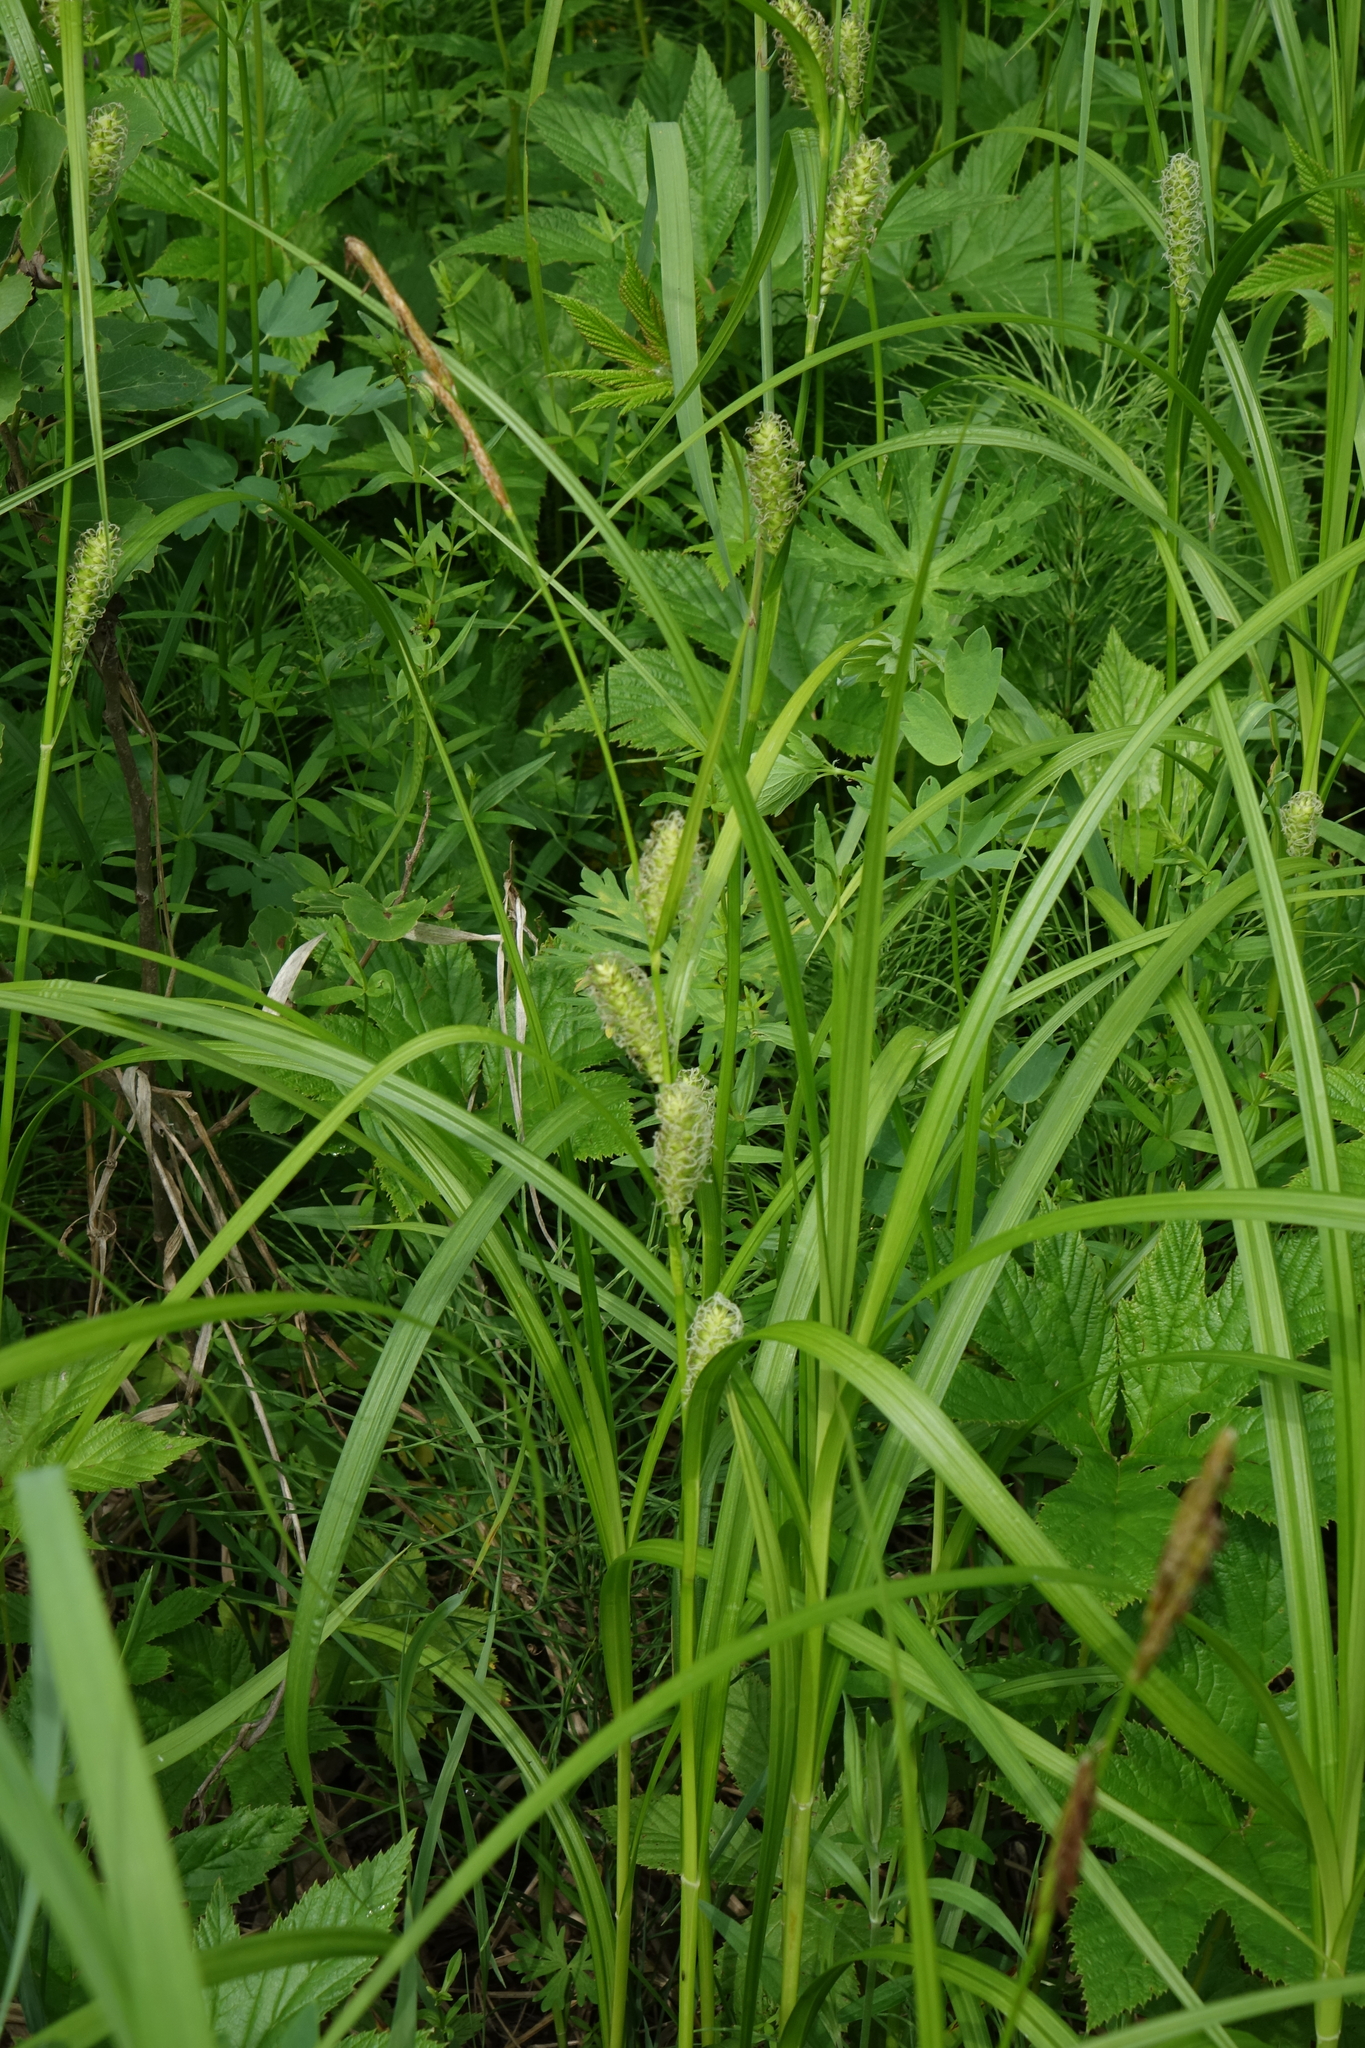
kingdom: Plantae
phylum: Tracheophyta
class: Liliopsida
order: Poales
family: Cyperaceae
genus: Carex
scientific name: Carex mollissima
